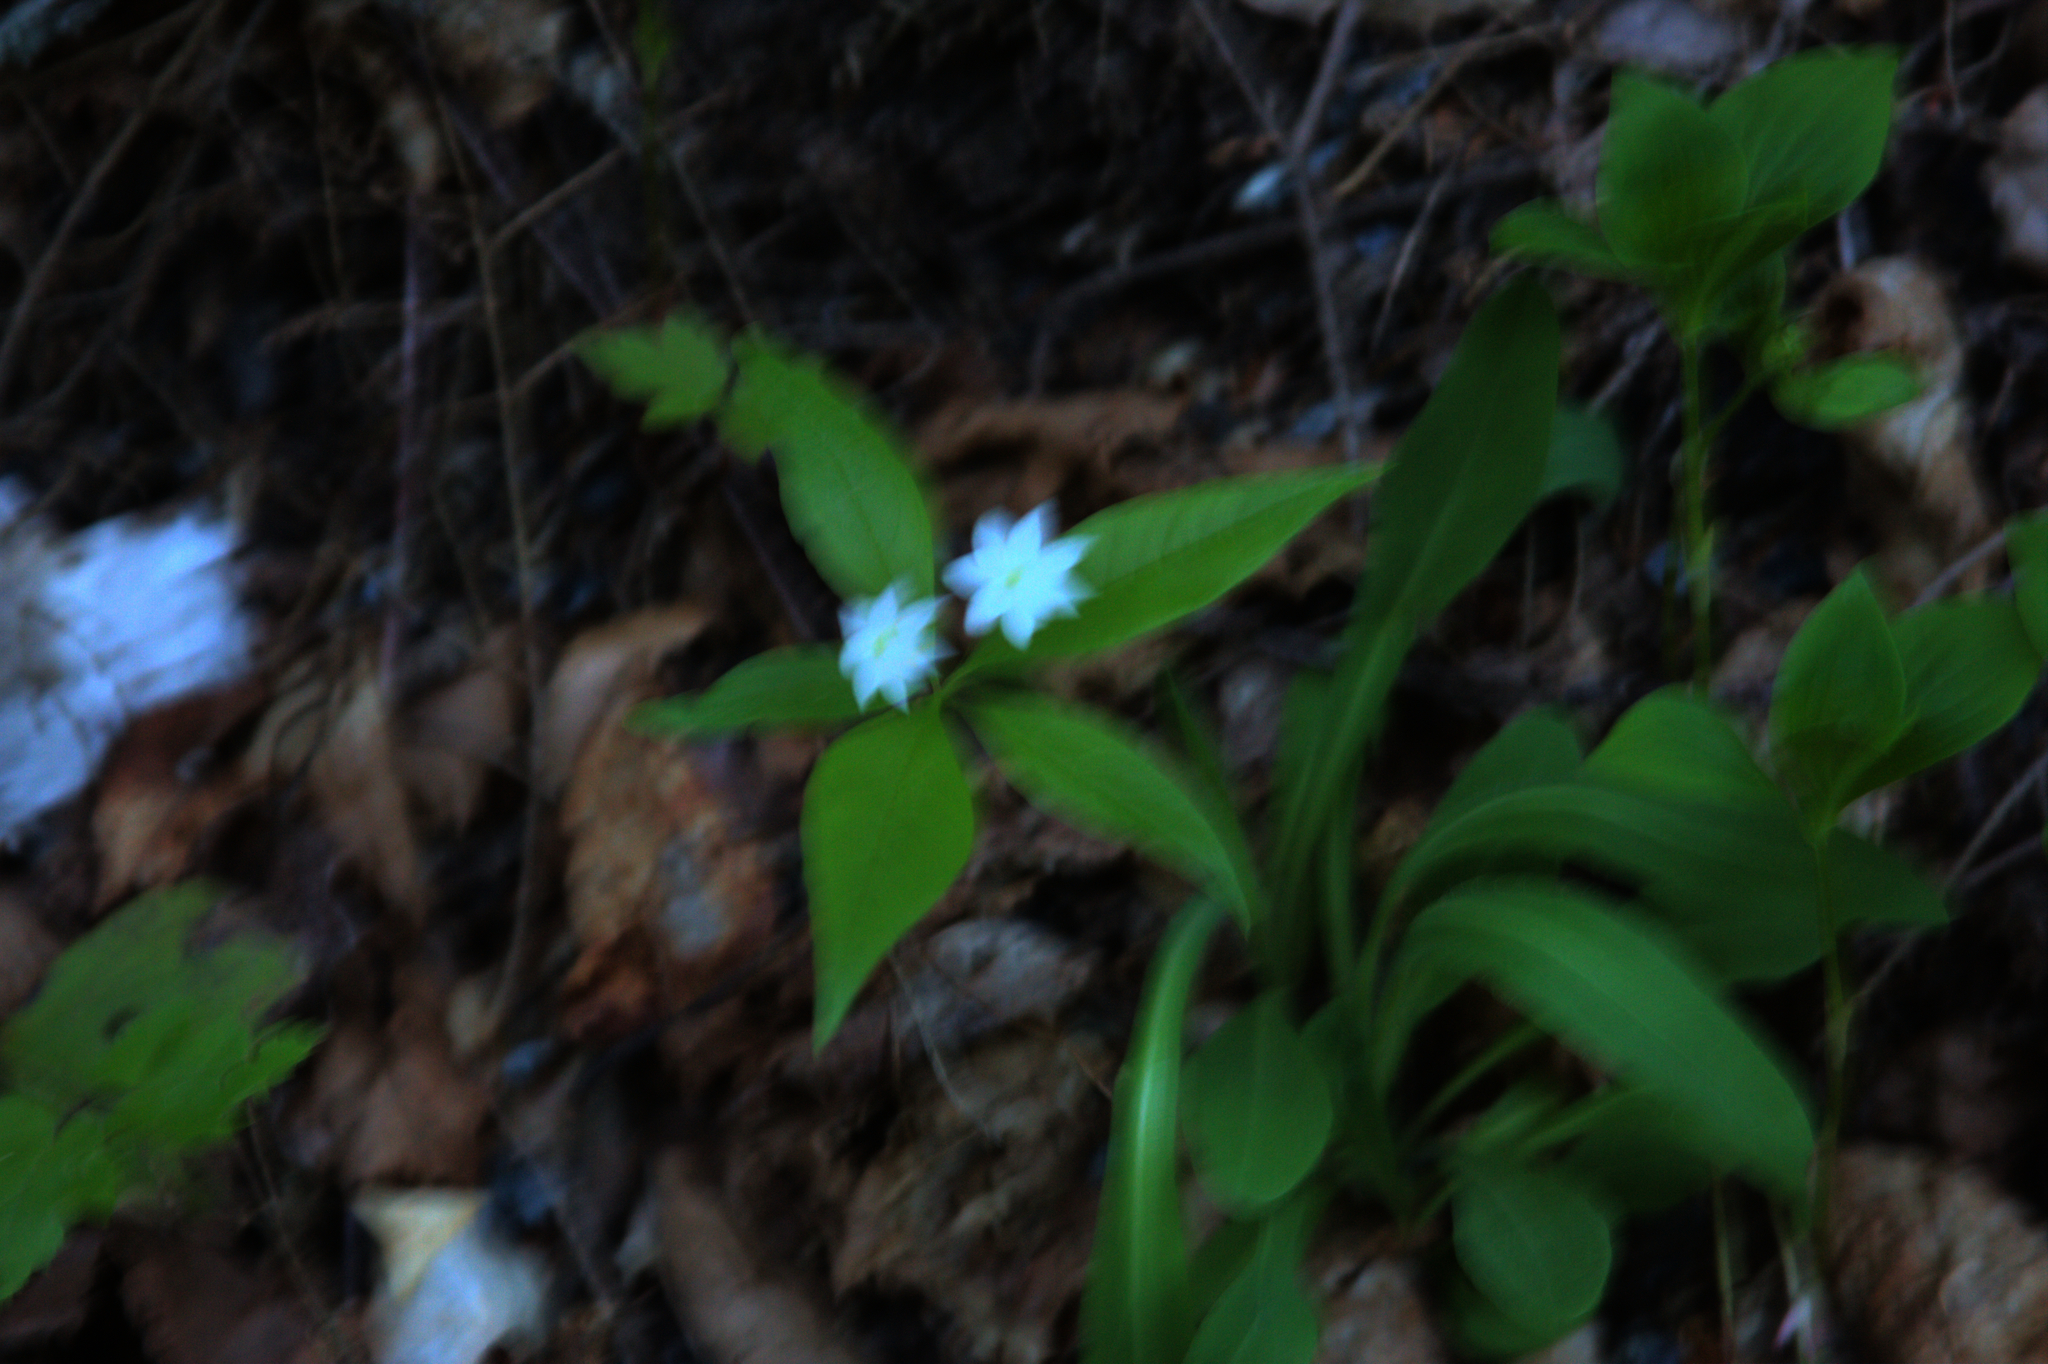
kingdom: Plantae
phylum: Tracheophyta
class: Magnoliopsida
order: Ericales
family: Primulaceae
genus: Lysimachia
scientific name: Lysimachia borealis
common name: American starflower
